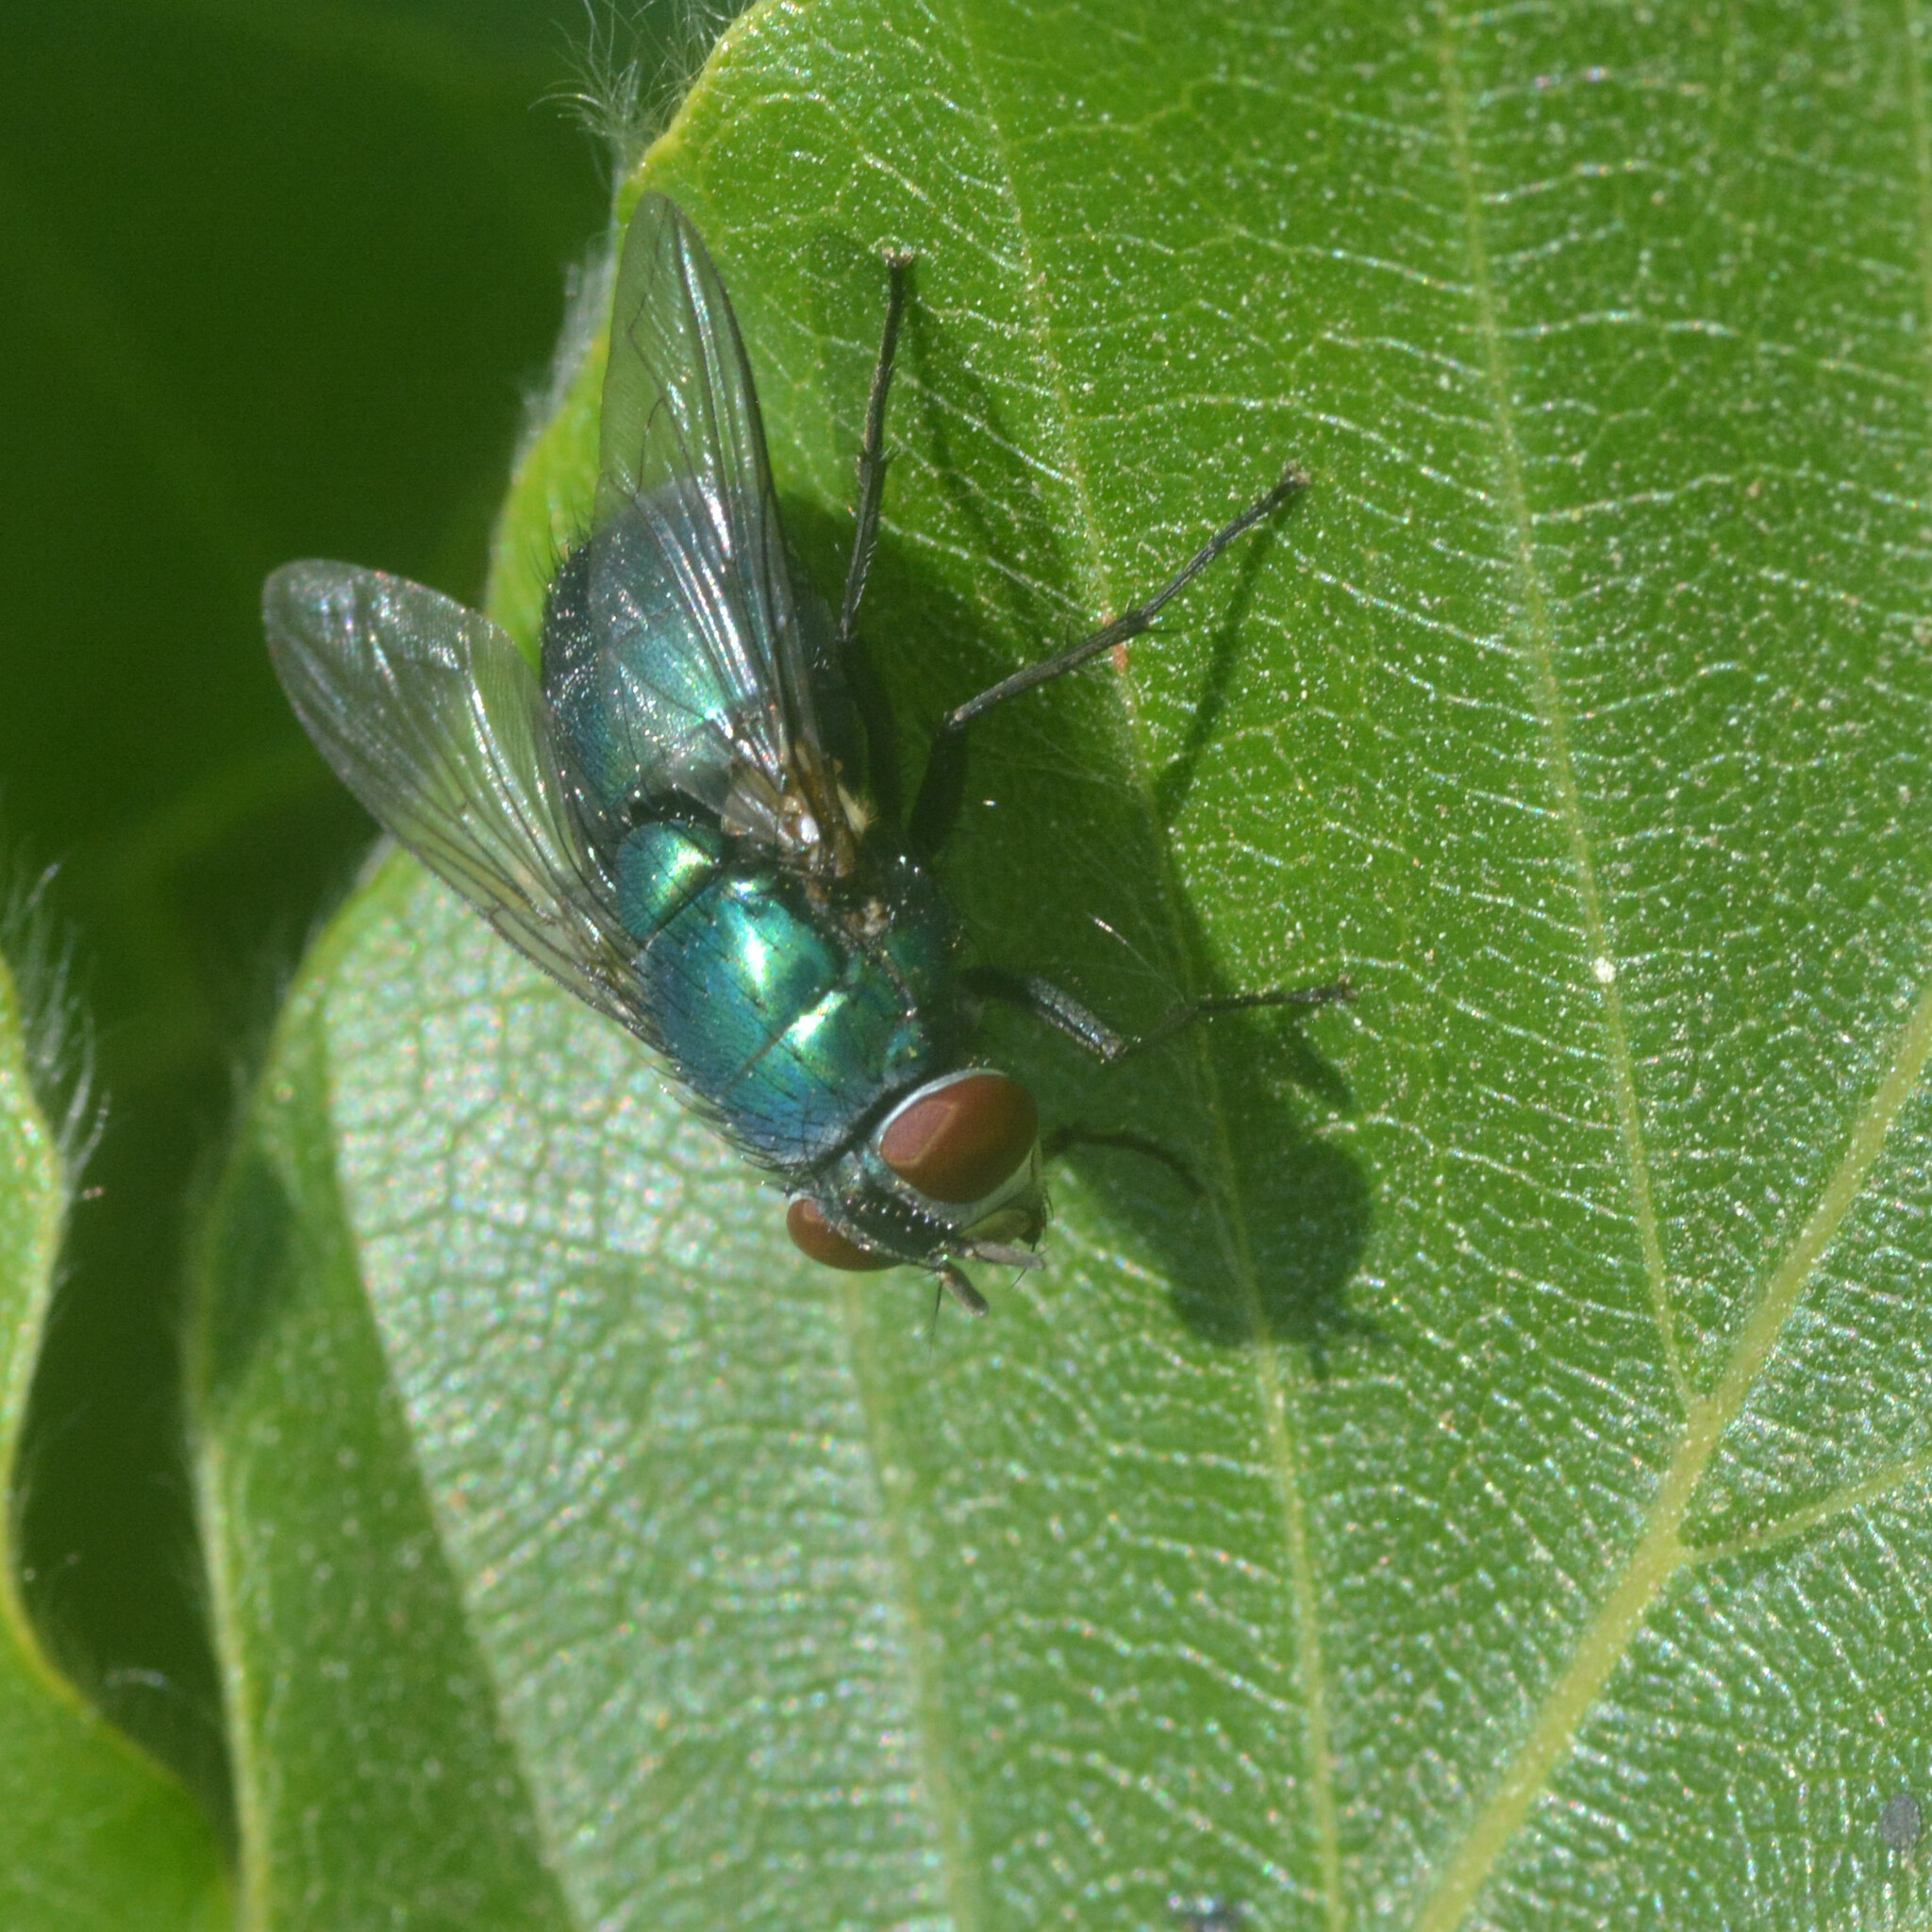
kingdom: Animalia
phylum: Arthropoda
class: Insecta
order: Diptera
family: Calliphoridae
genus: Lucilia
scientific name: Lucilia sericata
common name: Blow fly
